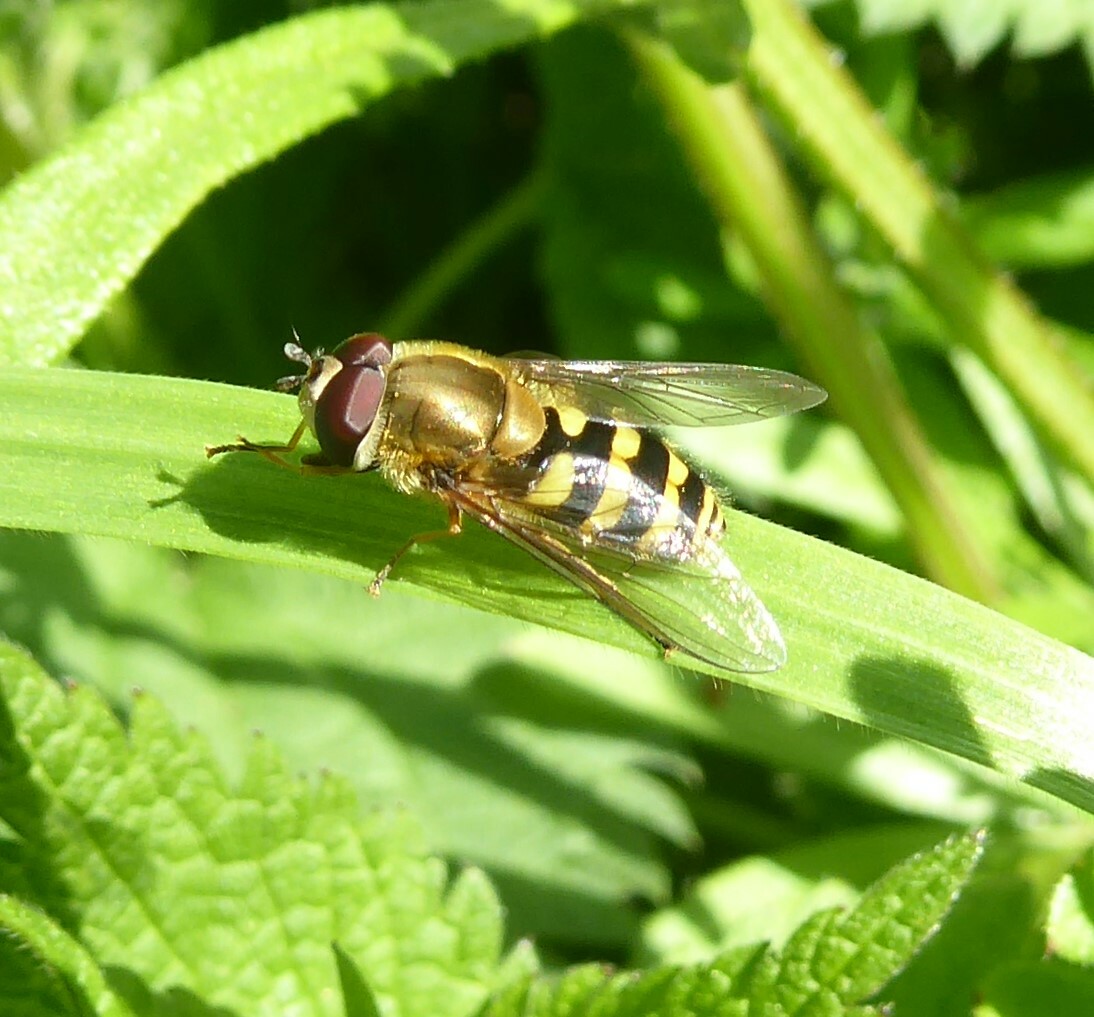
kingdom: Animalia
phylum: Arthropoda
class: Insecta
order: Diptera
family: Syrphidae
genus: Syrphus
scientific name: Syrphus
